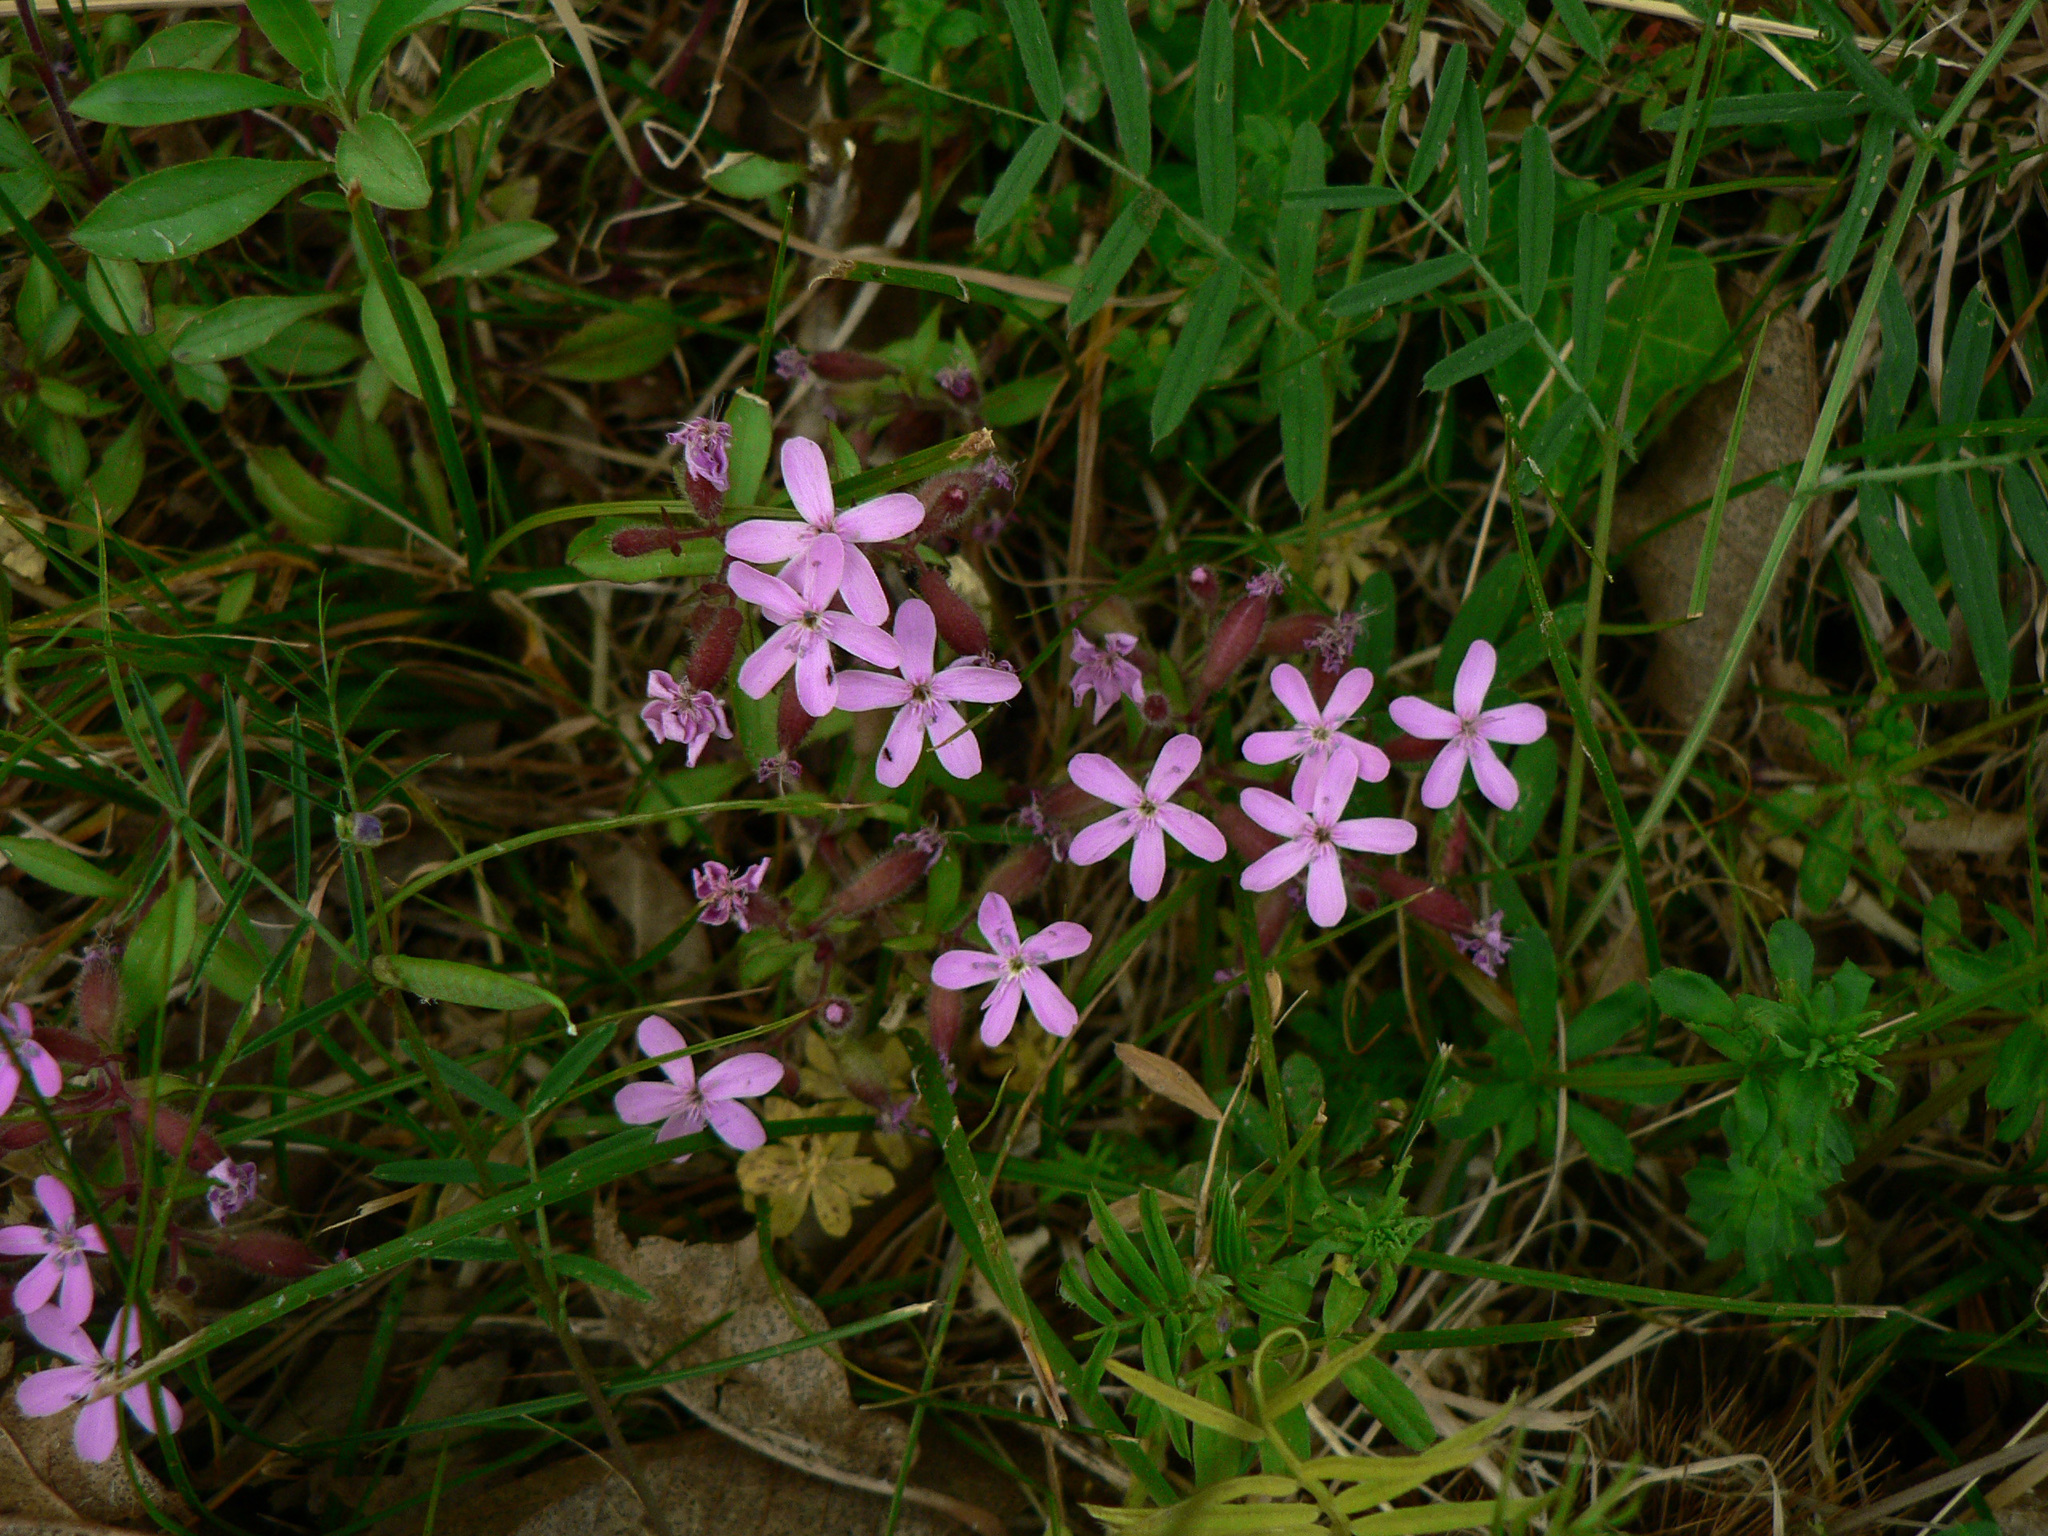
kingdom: Plantae
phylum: Tracheophyta
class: Magnoliopsida
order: Caryophyllales
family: Caryophyllaceae
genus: Saponaria
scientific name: Saponaria ocymoides
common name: Rock soapwort
